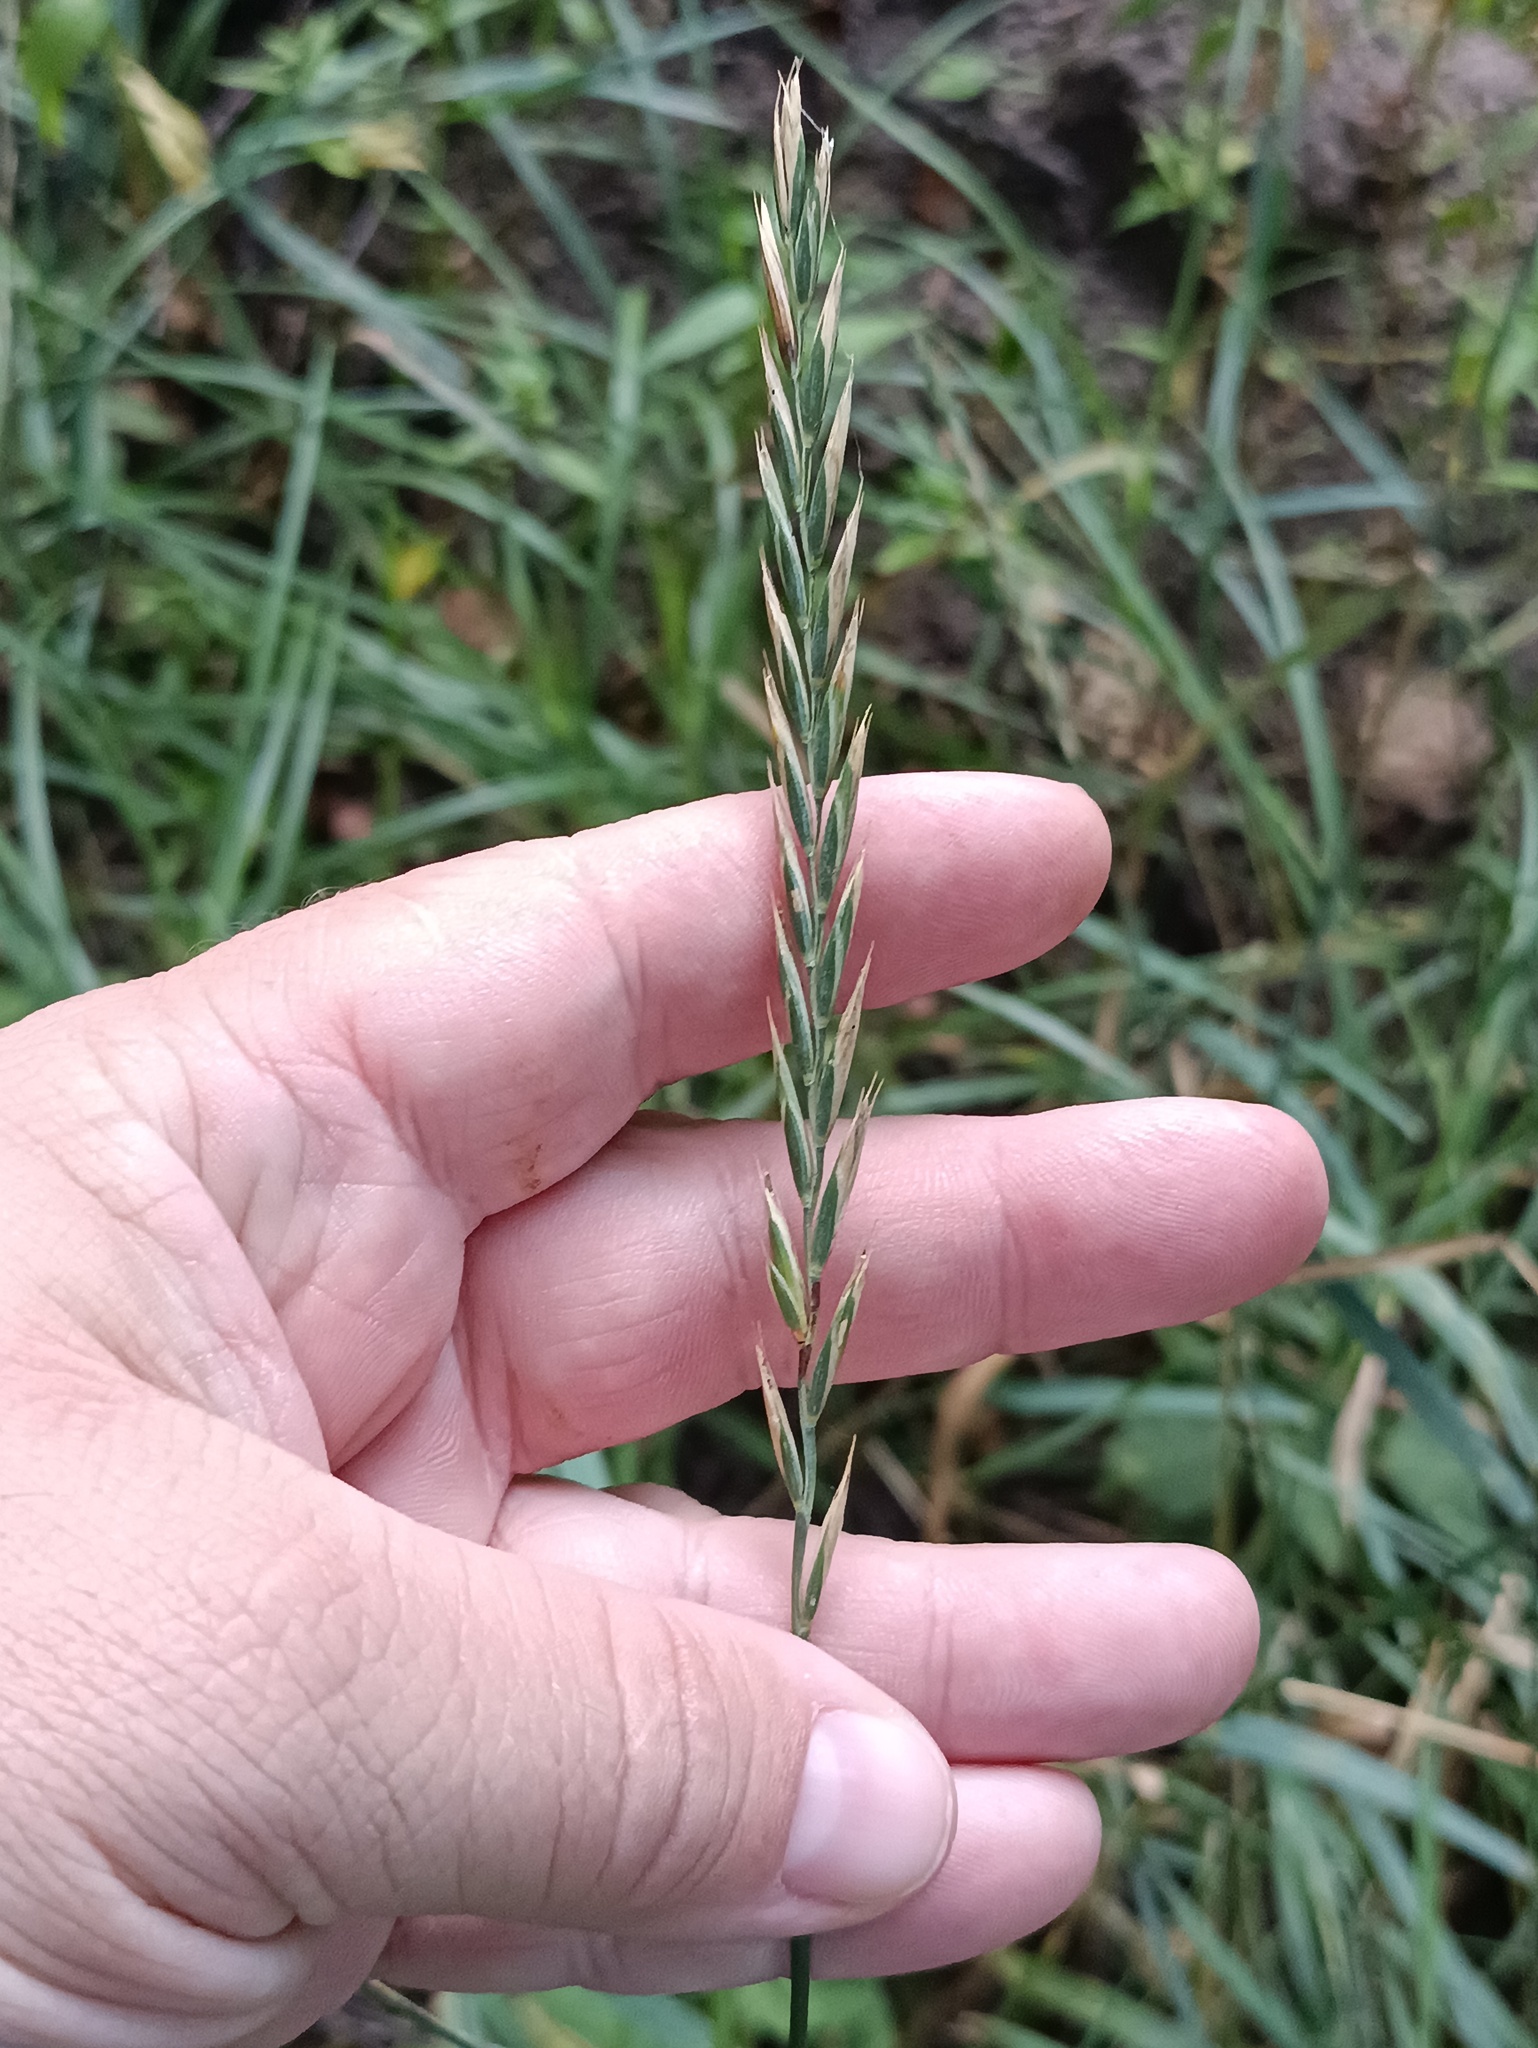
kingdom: Plantae
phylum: Tracheophyta
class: Liliopsida
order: Poales
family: Poaceae
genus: Elymus
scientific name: Elymus repens
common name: Quackgrass
